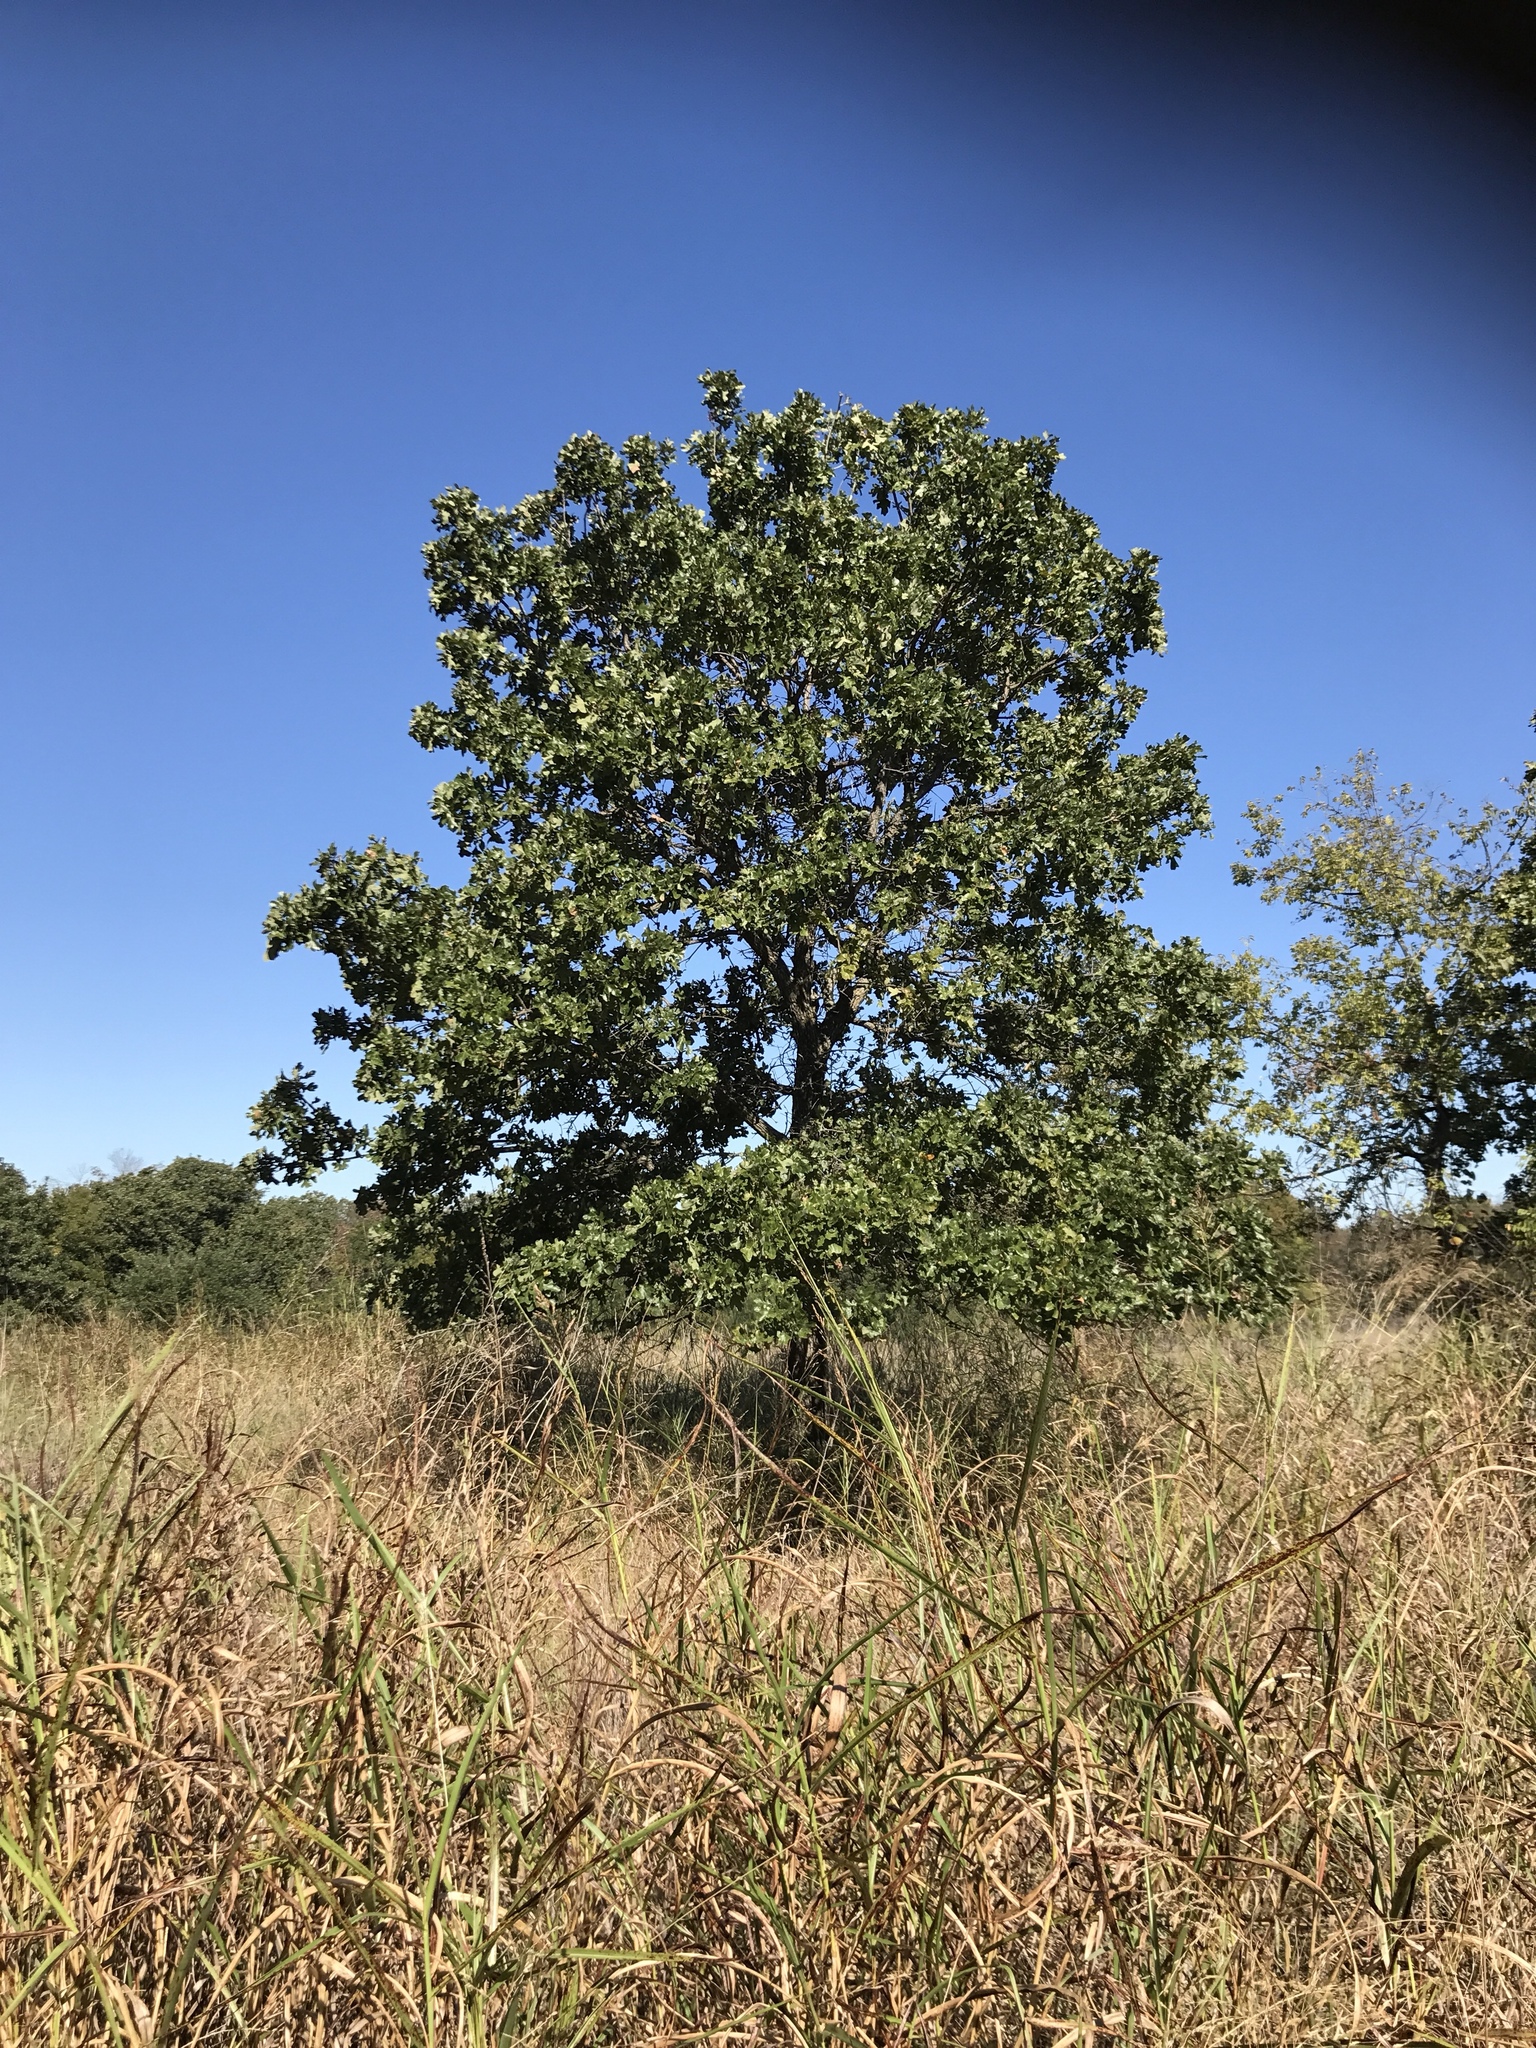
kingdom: Plantae
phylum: Tracheophyta
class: Magnoliopsida
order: Fagales
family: Fagaceae
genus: Quercus
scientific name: Quercus stellata
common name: Post oak
